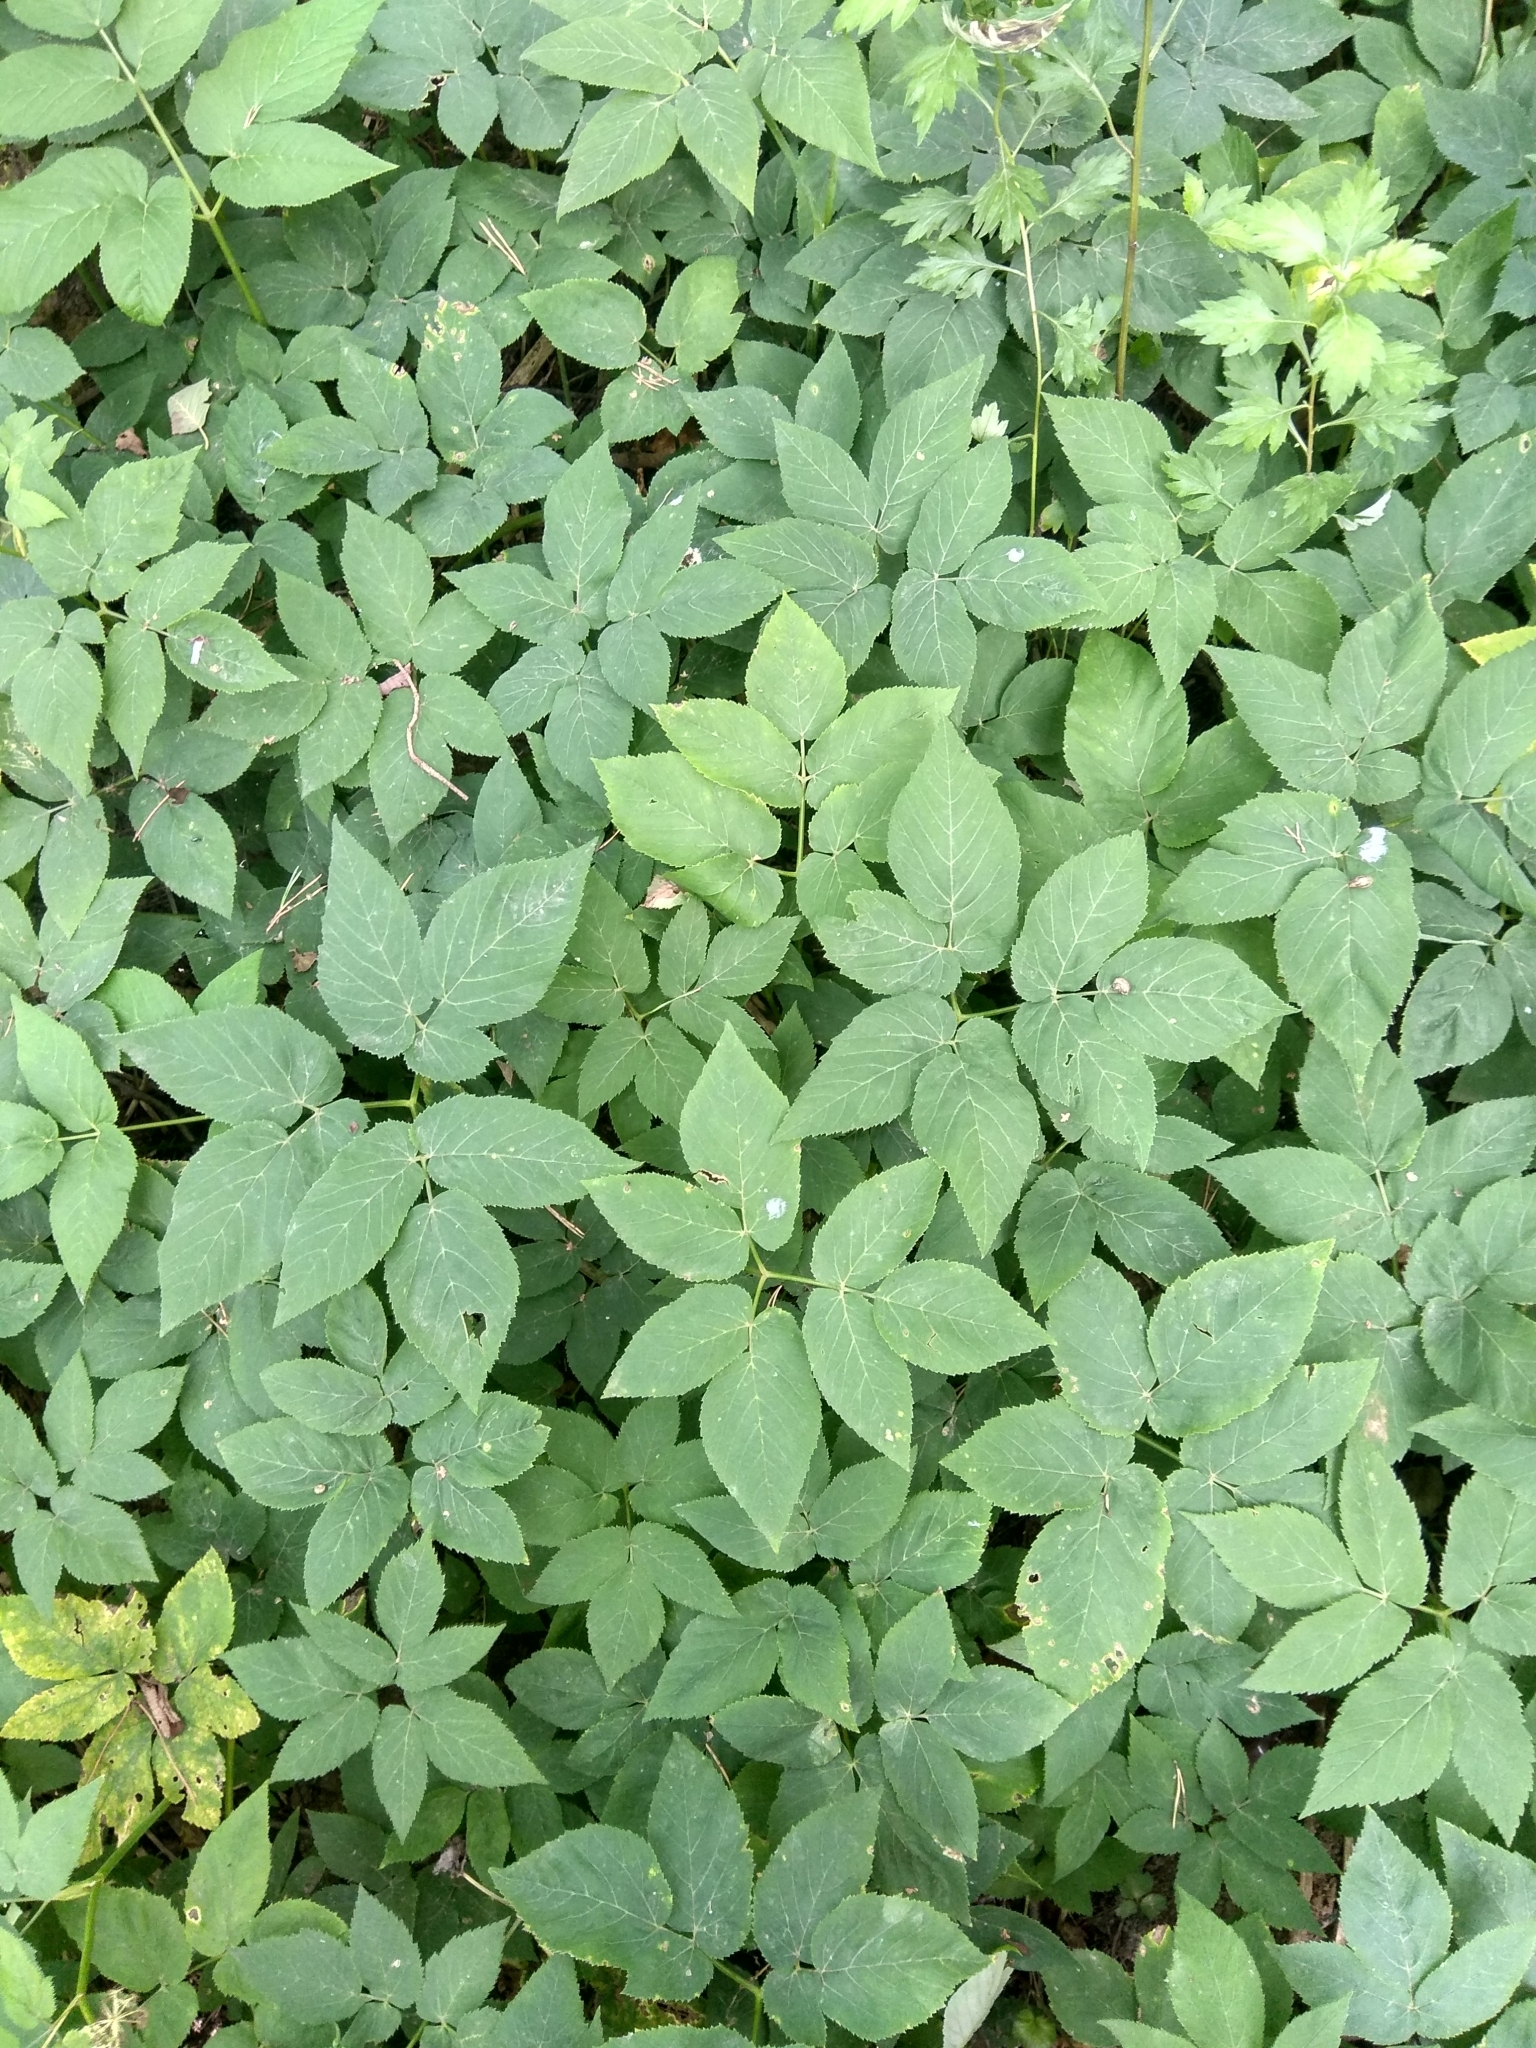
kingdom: Plantae
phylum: Tracheophyta
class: Magnoliopsida
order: Apiales
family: Apiaceae
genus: Aegopodium
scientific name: Aegopodium podagraria
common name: Ground-elder
